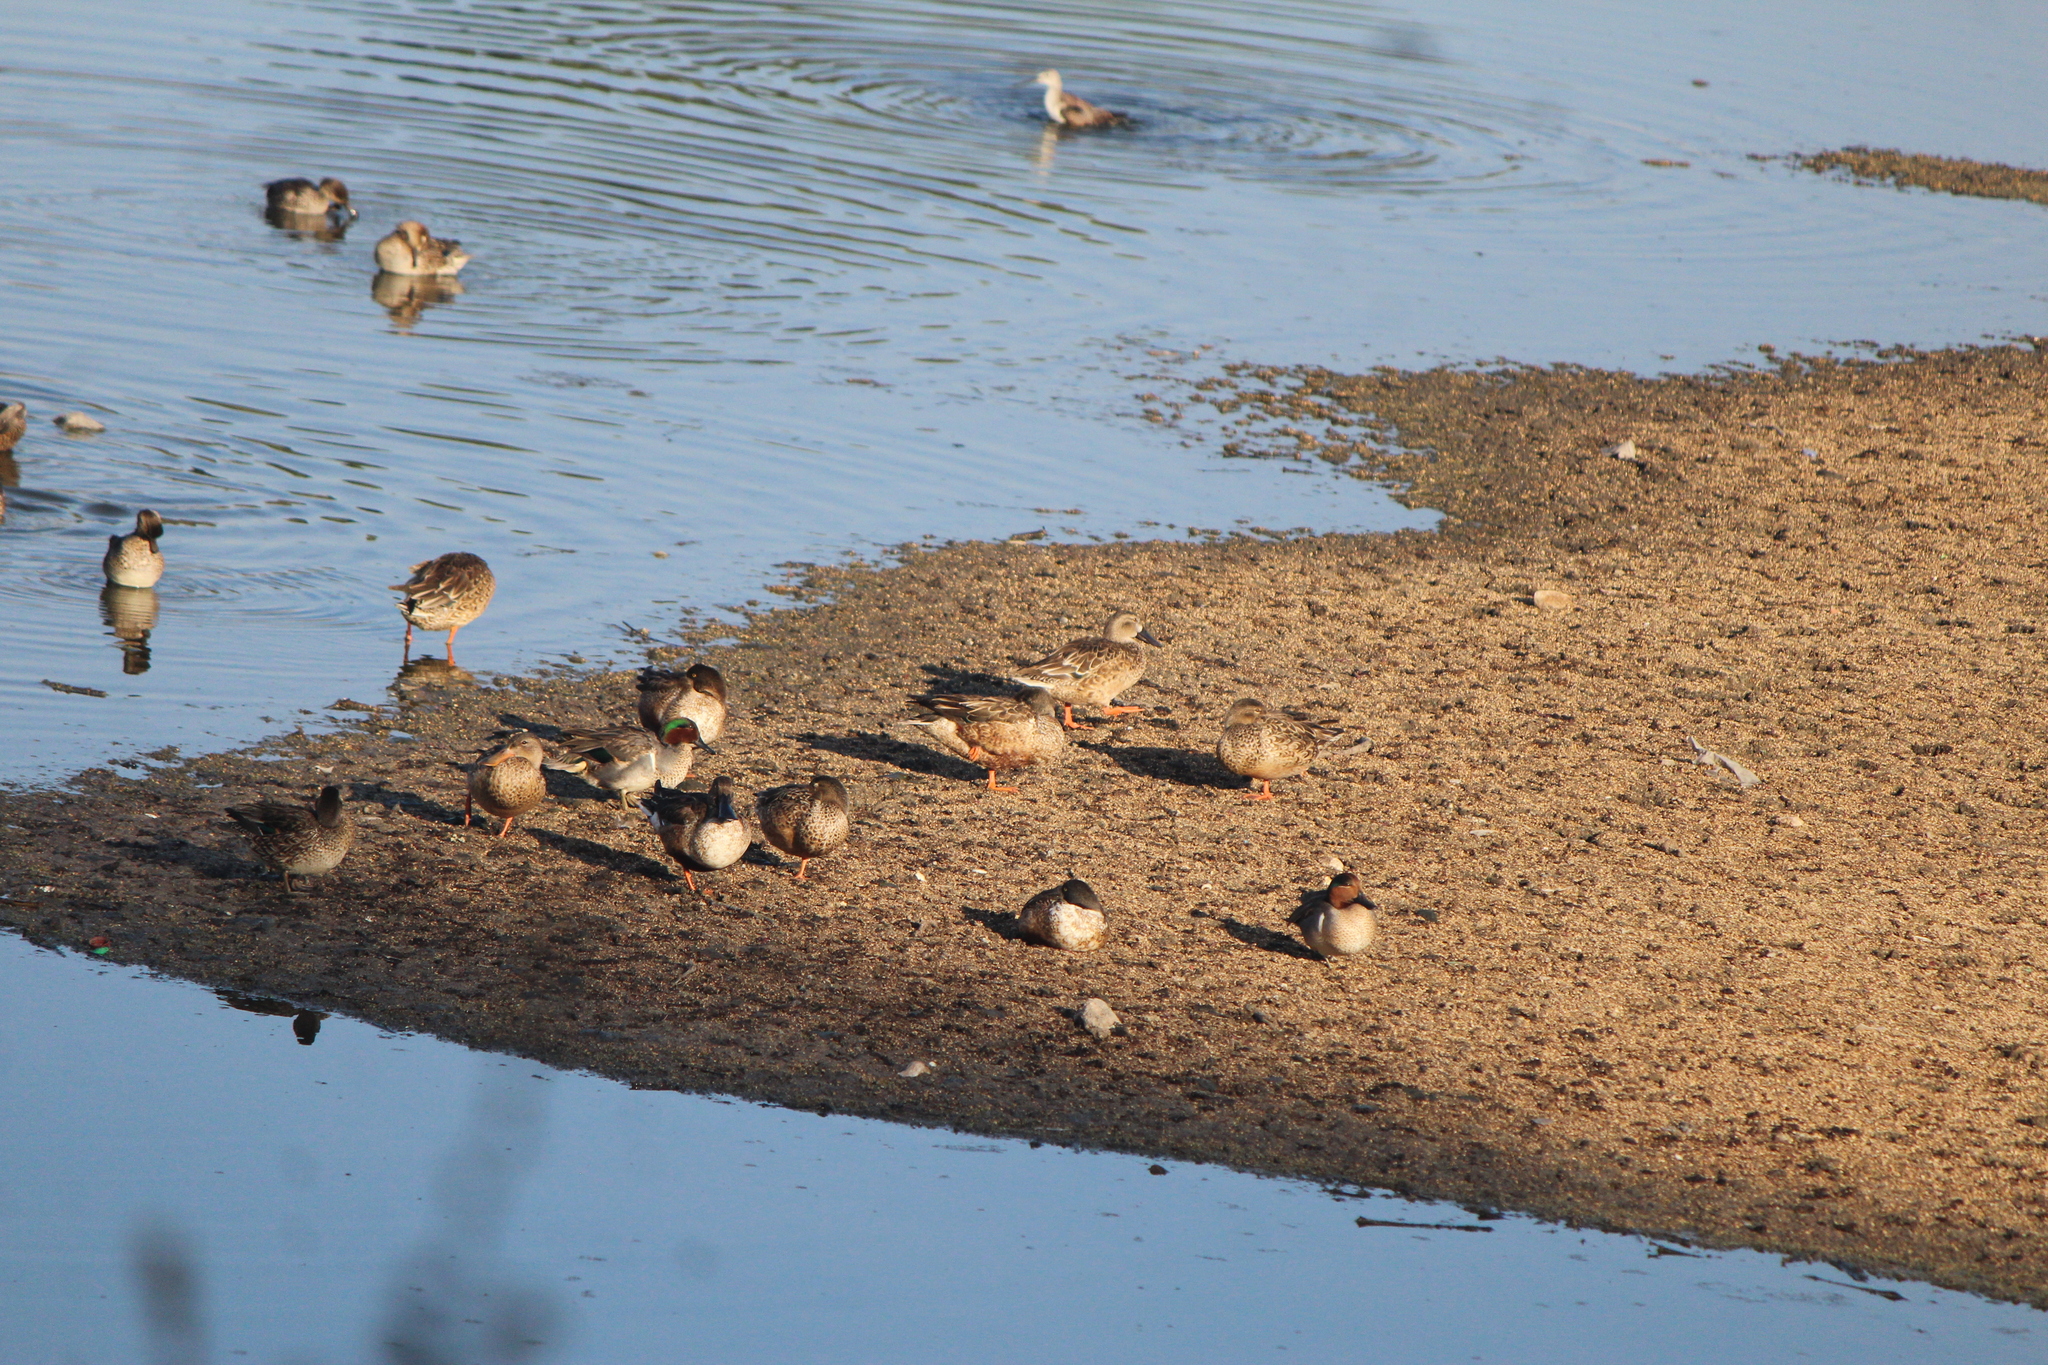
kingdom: Animalia
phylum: Chordata
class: Aves
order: Anseriformes
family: Anatidae
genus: Anas
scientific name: Anas crecca
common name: Eurasian teal
